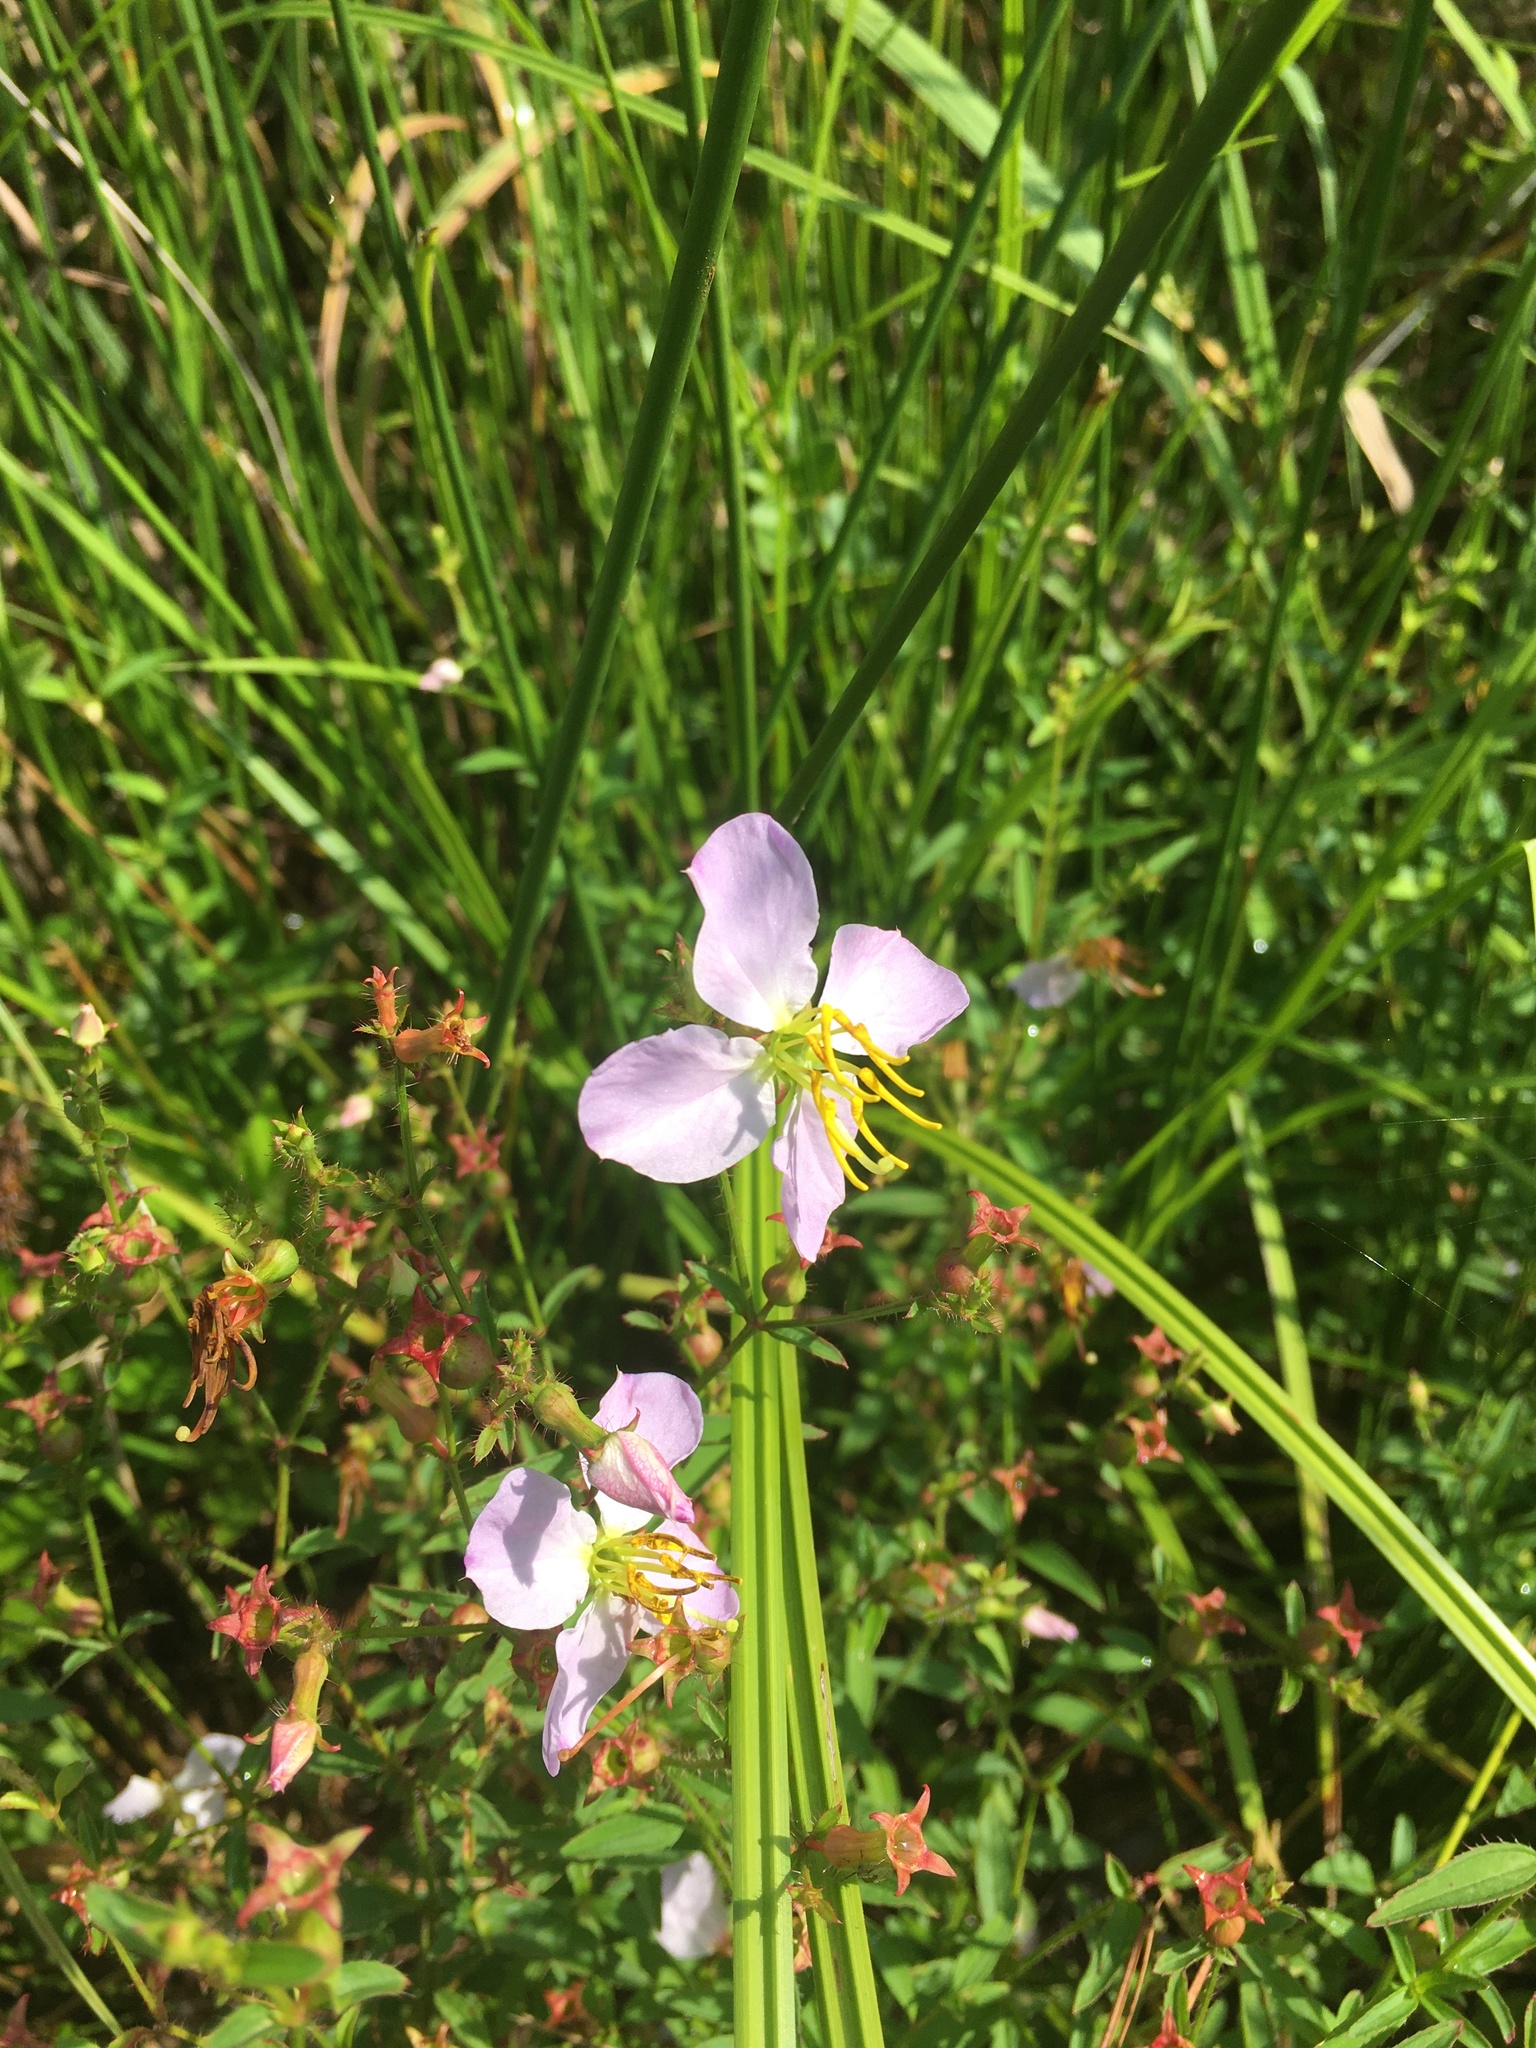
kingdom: Plantae
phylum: Tracheophyta
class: Magnoliopsida
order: Myrtales
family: Melastomataceae
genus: Rhexia
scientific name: Rhexia mariana
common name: Dull meadow-pitcher
